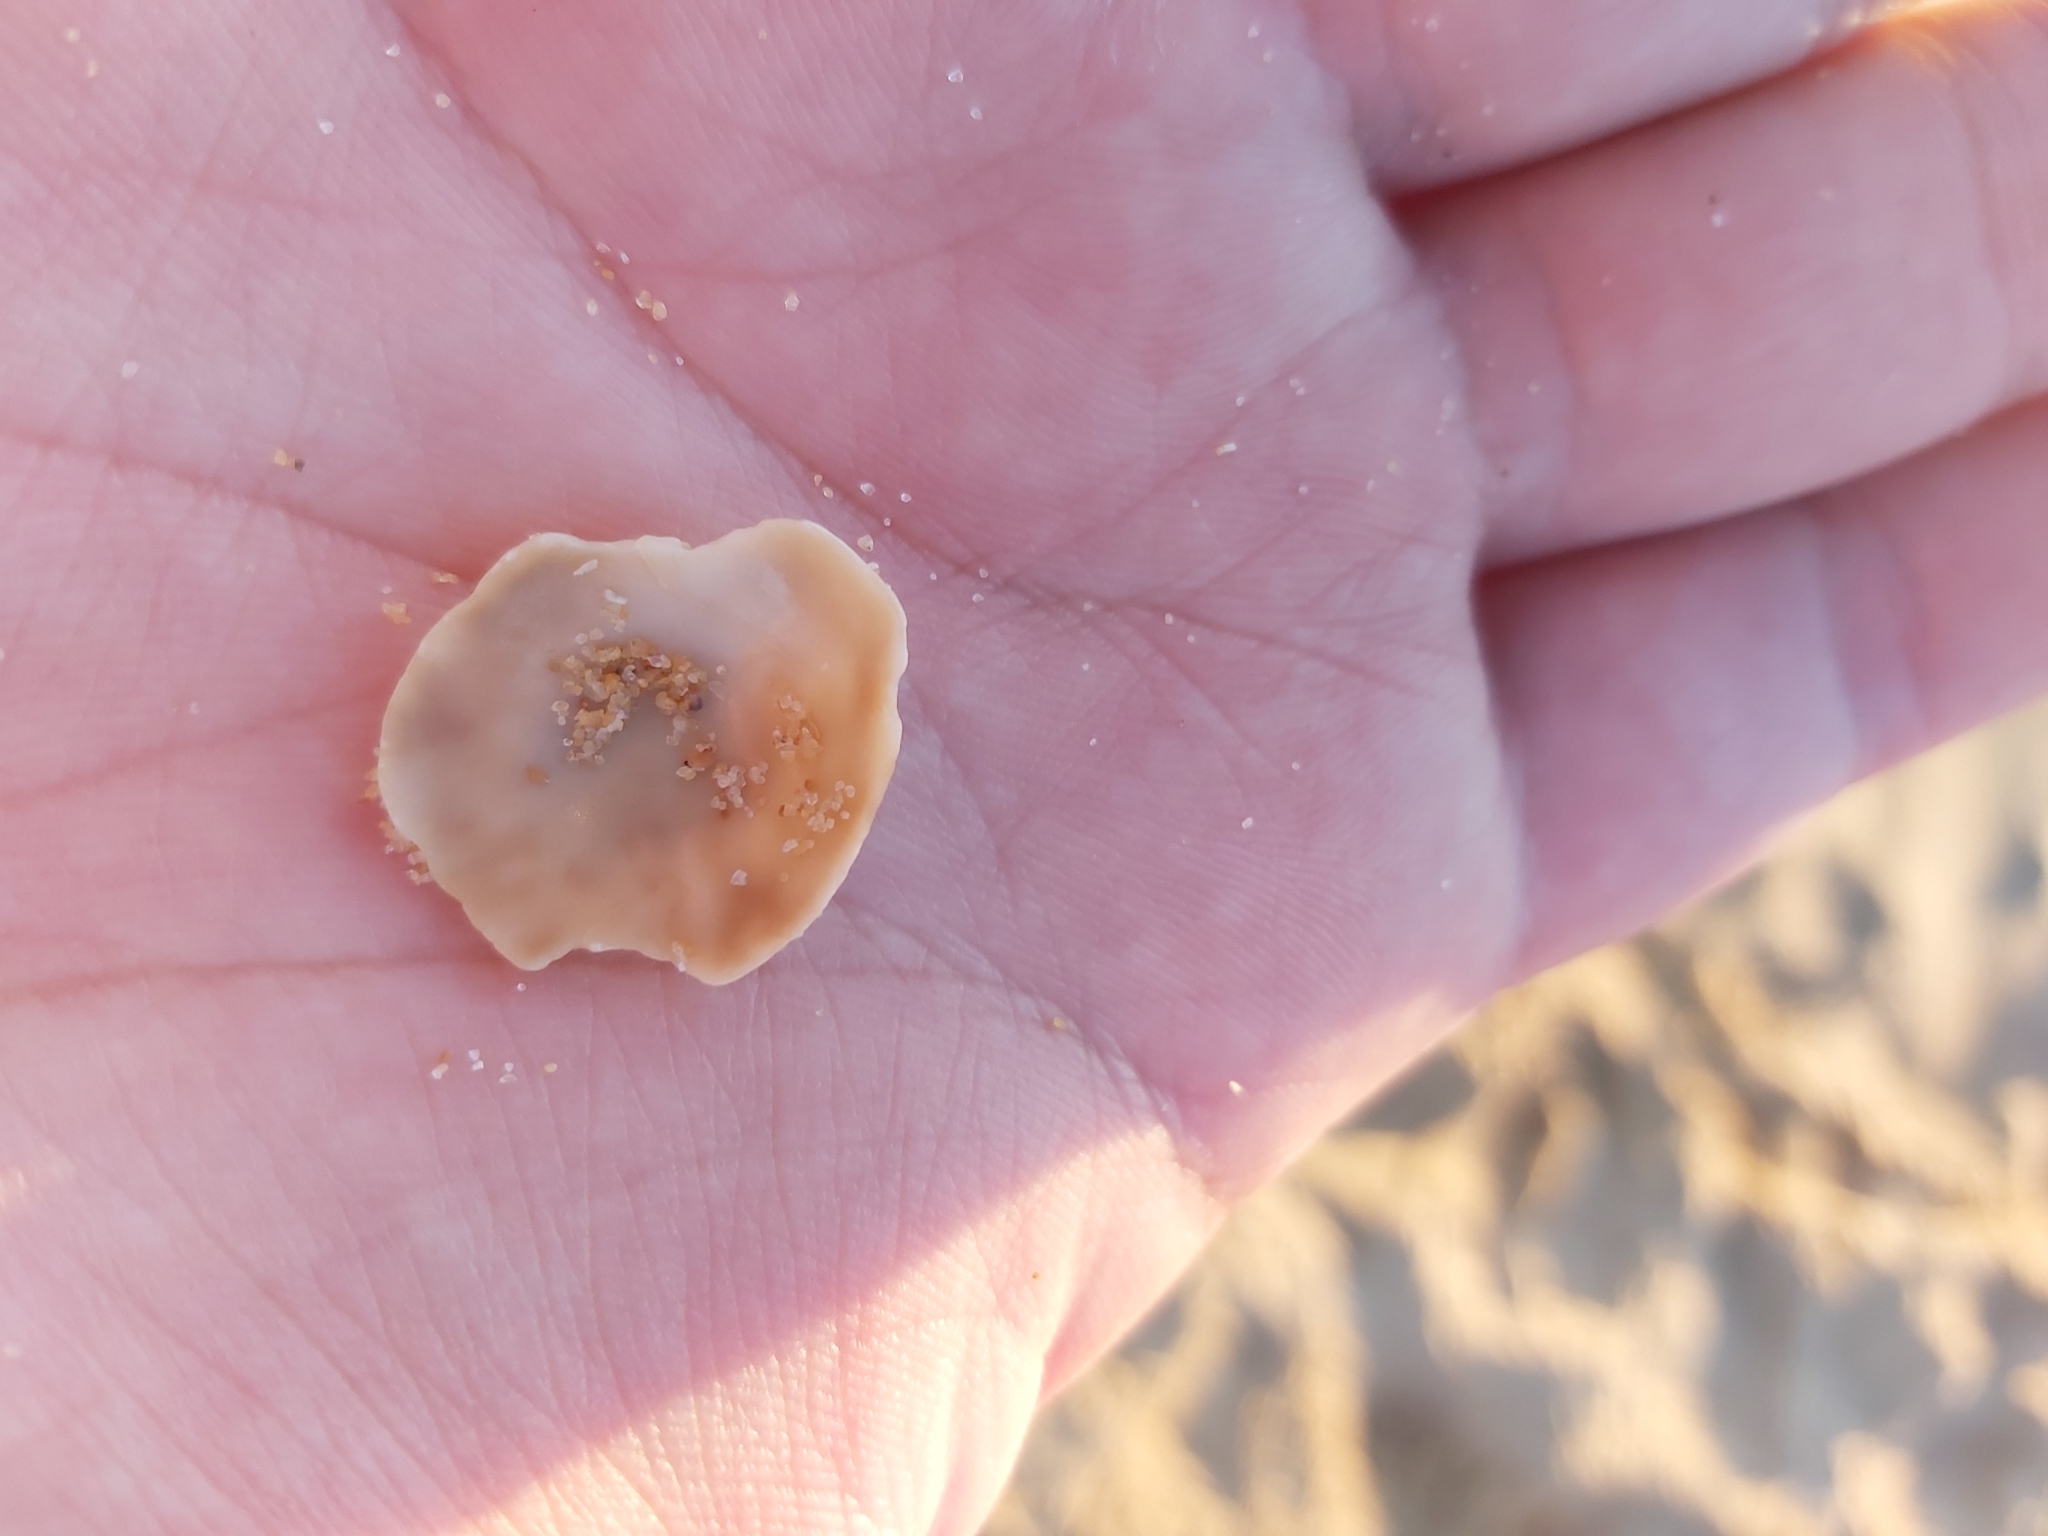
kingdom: Animalia
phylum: Mollusca
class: Gastropoda
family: Nacellidae
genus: Cellana
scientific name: Cellana tramoserica
